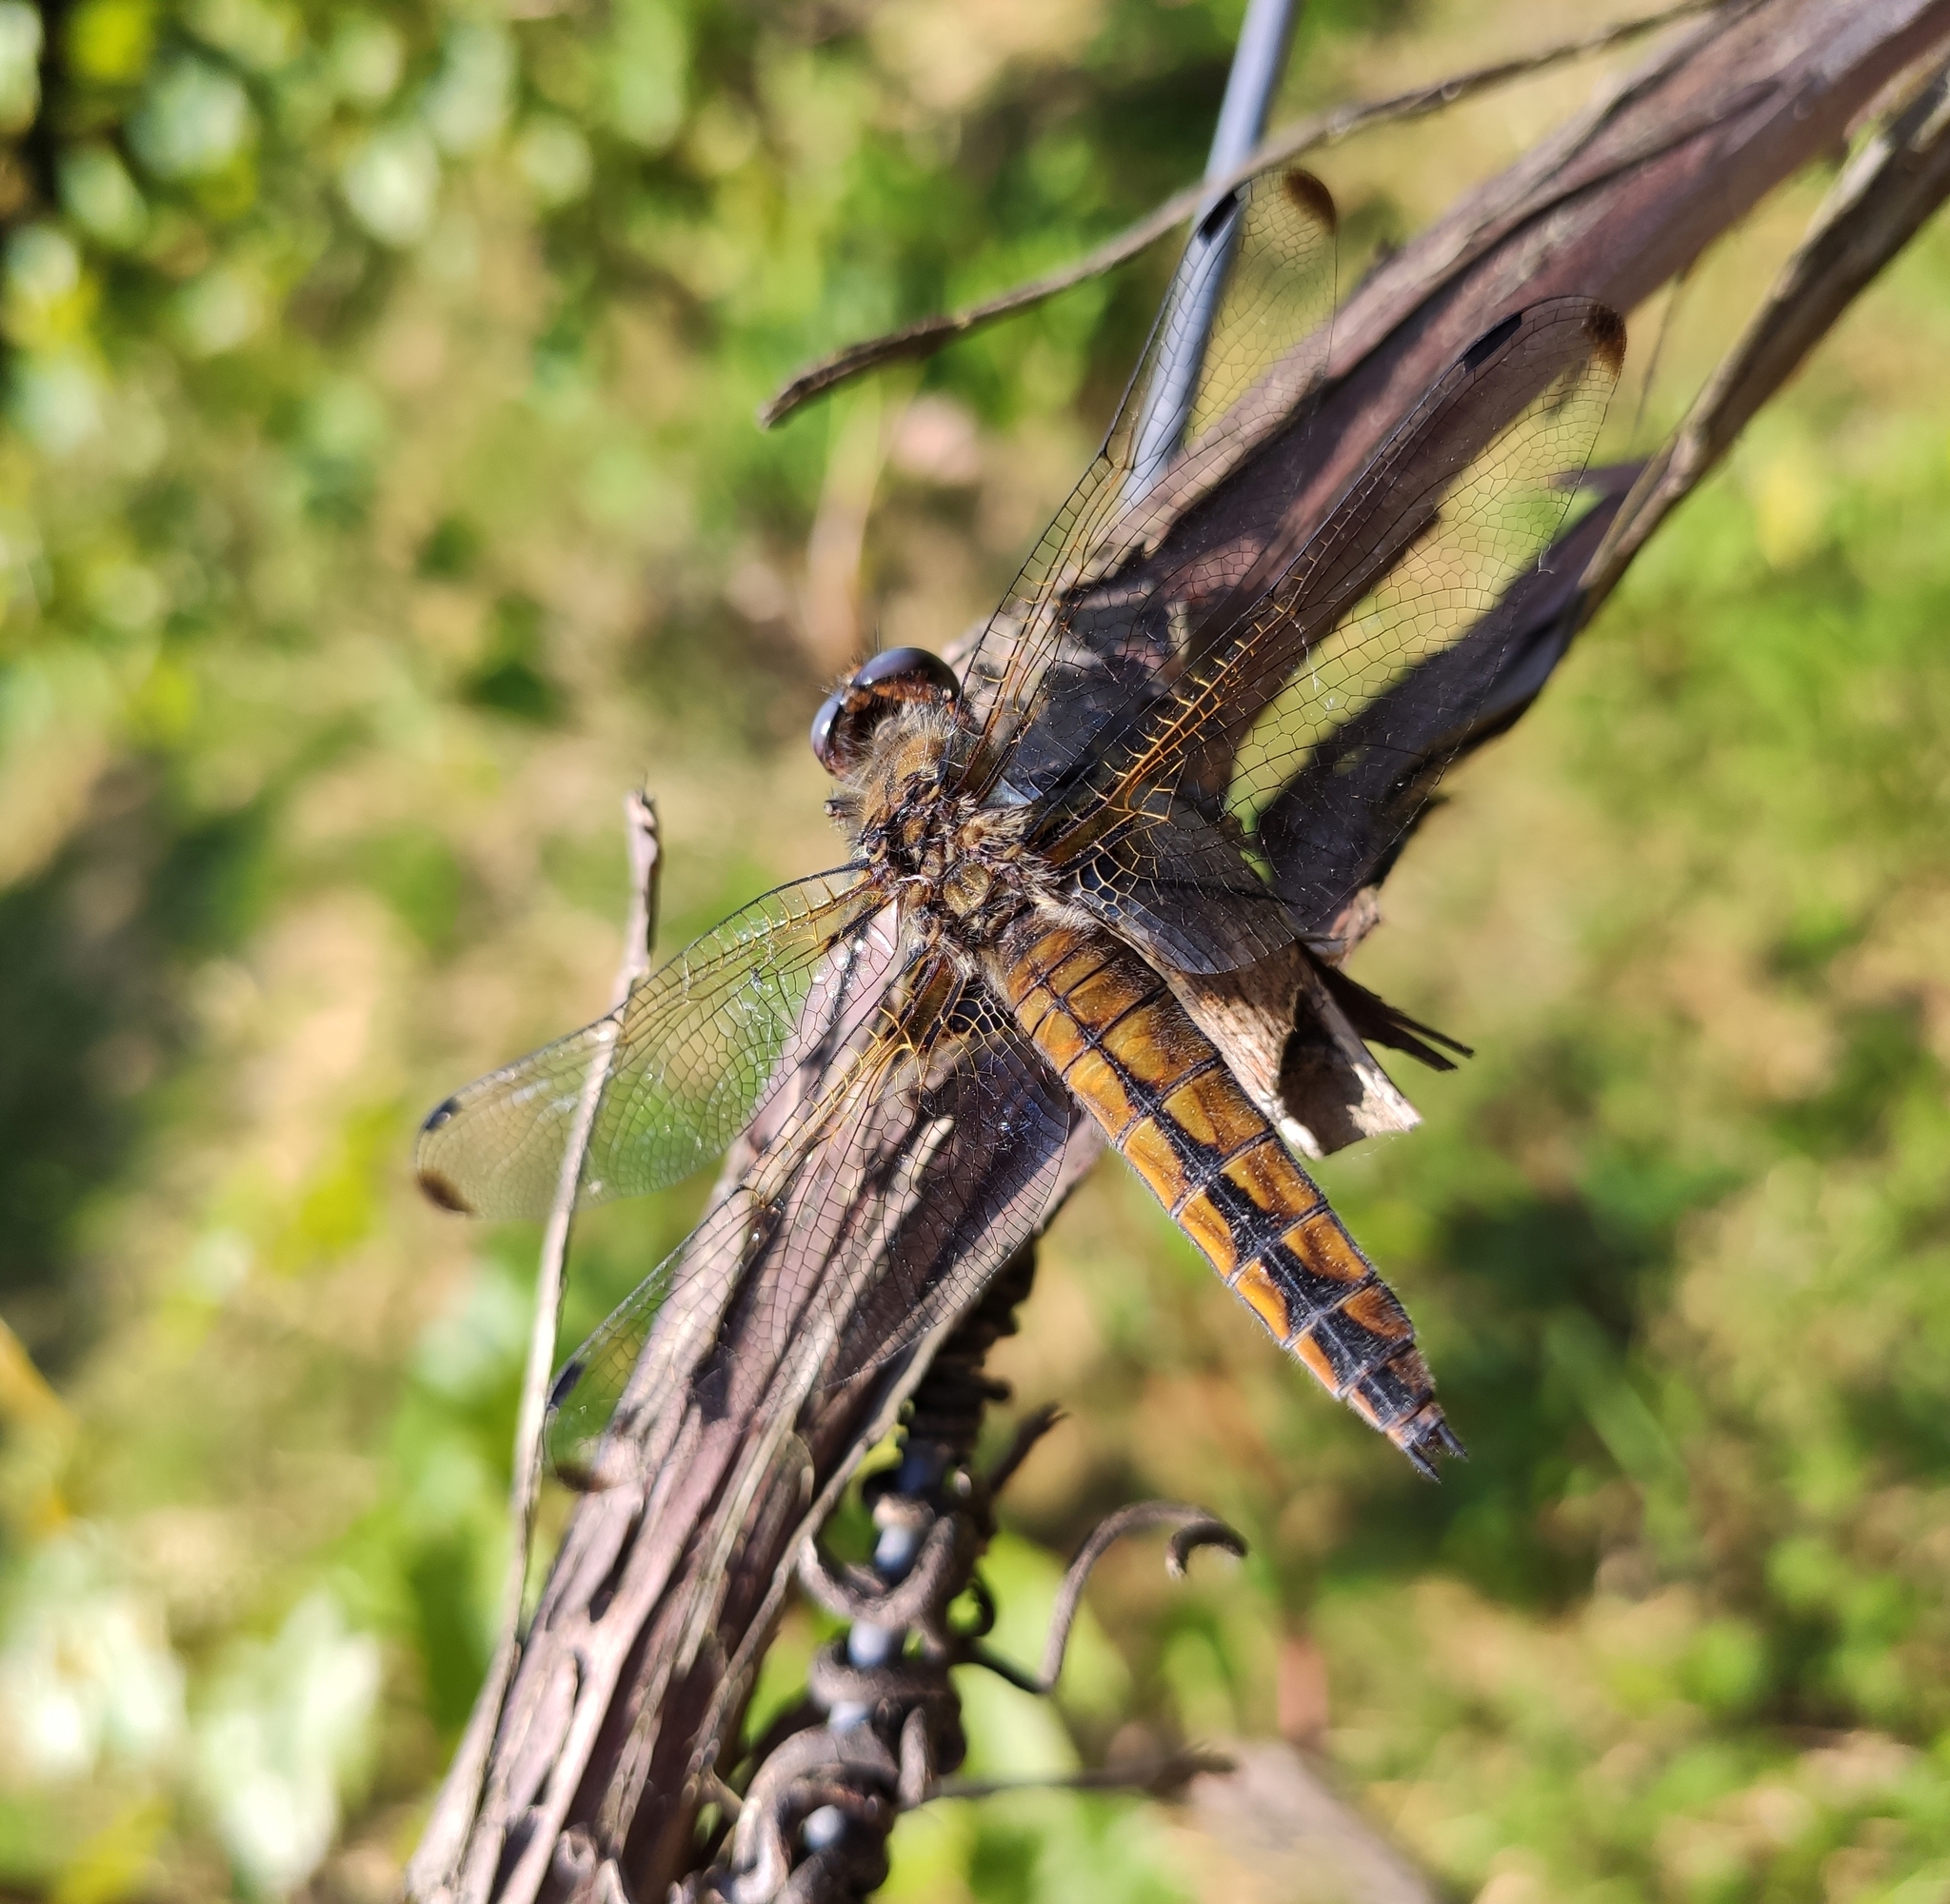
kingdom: Animalia
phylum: Arthropoda
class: Insecta
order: Odonata
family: Libellulidae
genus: Libellula
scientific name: Libellula fulva
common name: Blue chaser
